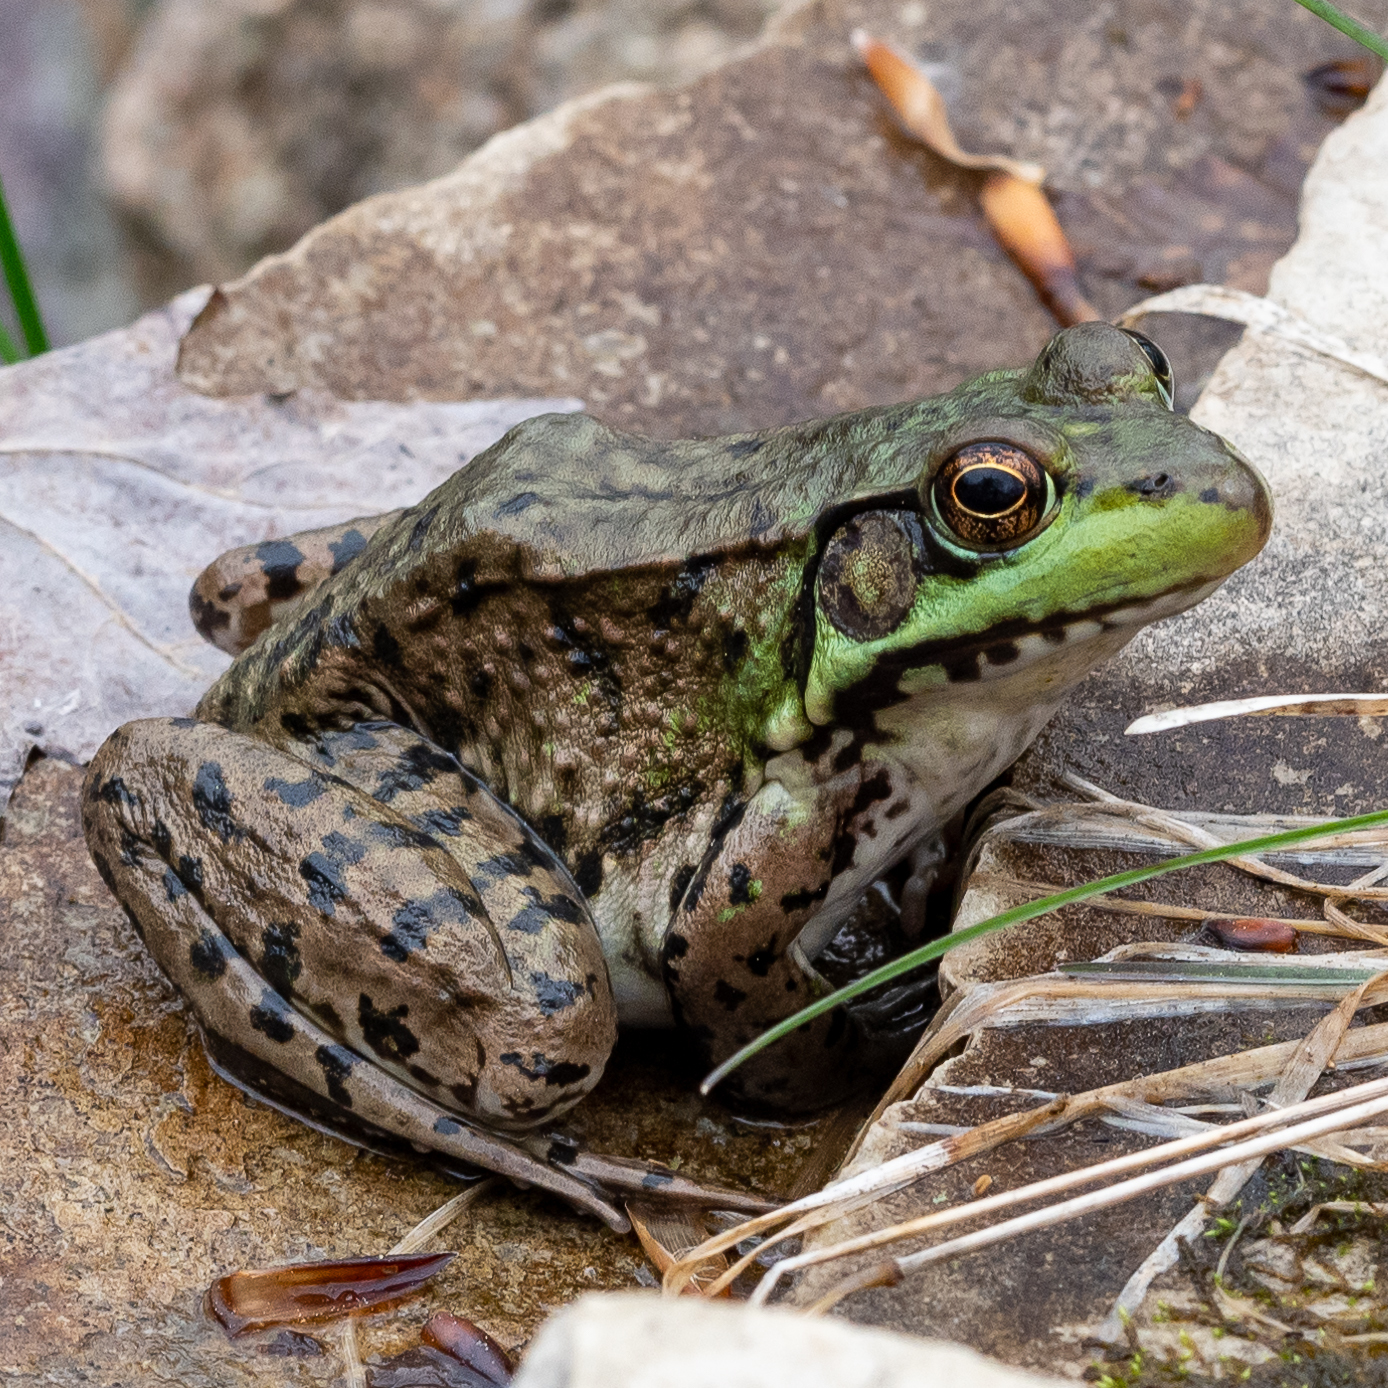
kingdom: Animalia
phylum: Chordata
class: Amphibia
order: Anura
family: Ranidae
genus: Lithobates
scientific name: Lithobates clamitans
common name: Green frog
